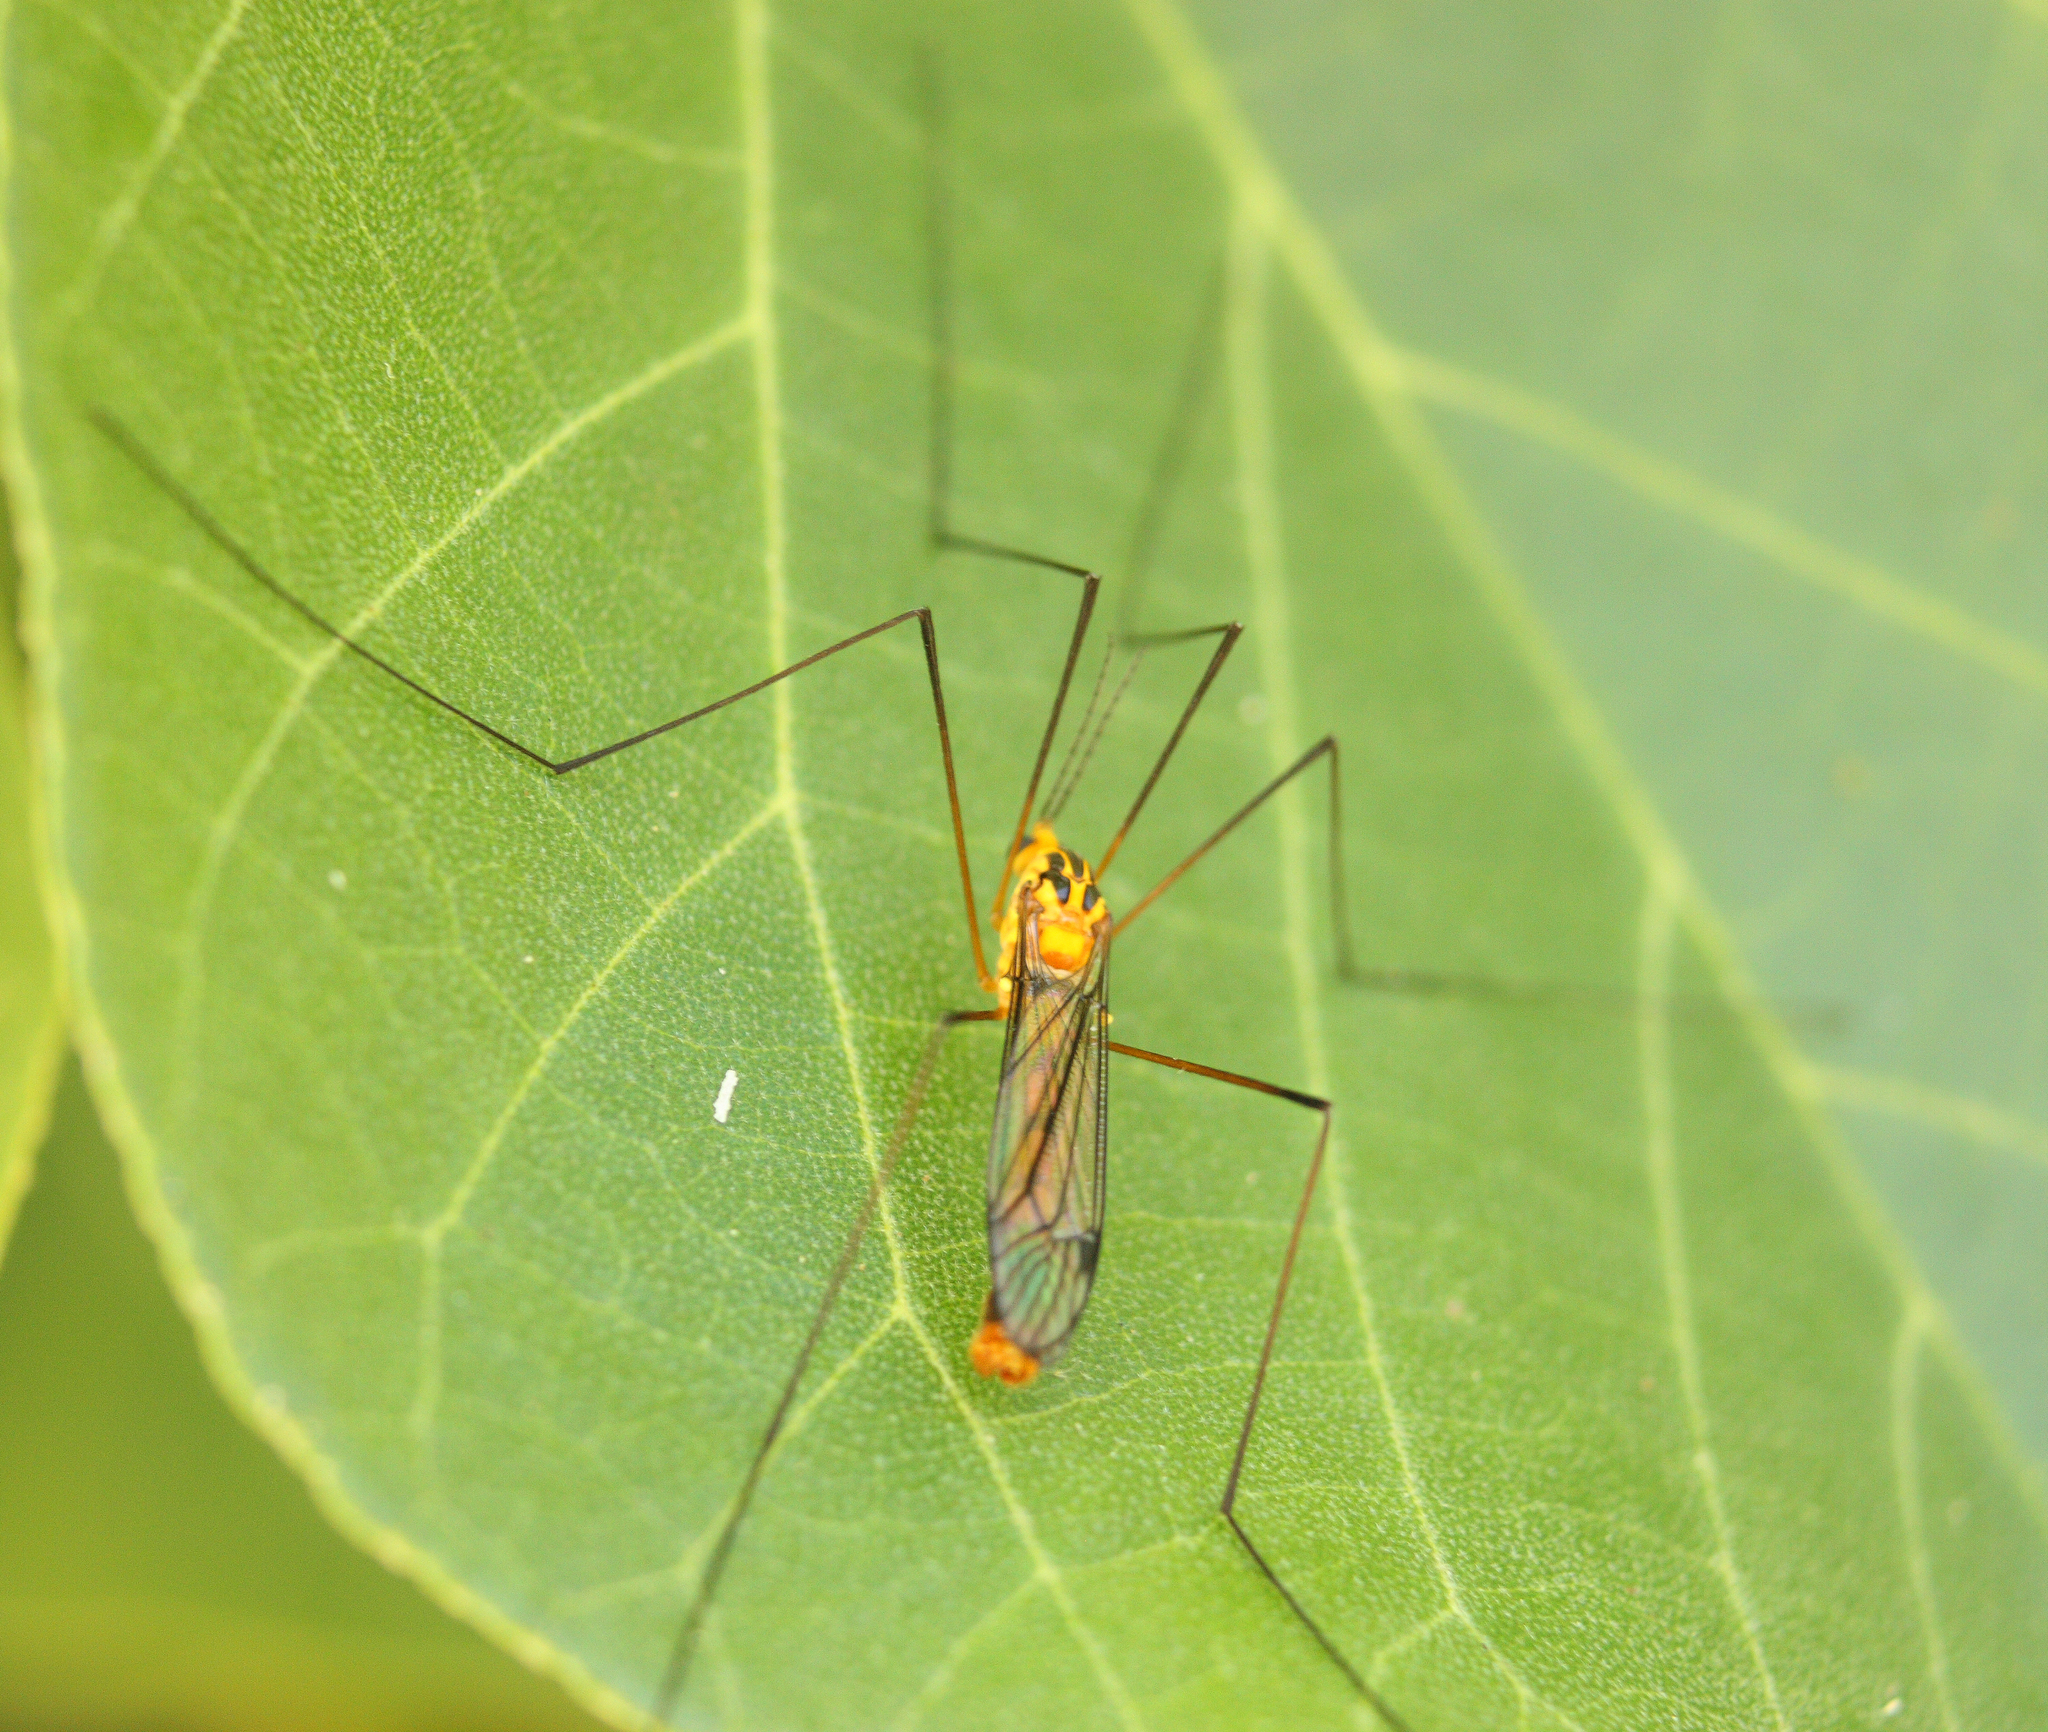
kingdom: Animalia
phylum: Arthropoda
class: Insecta
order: Diptera
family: Tipulidae
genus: Nephrotoma
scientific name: Nephrotoma australasiae
